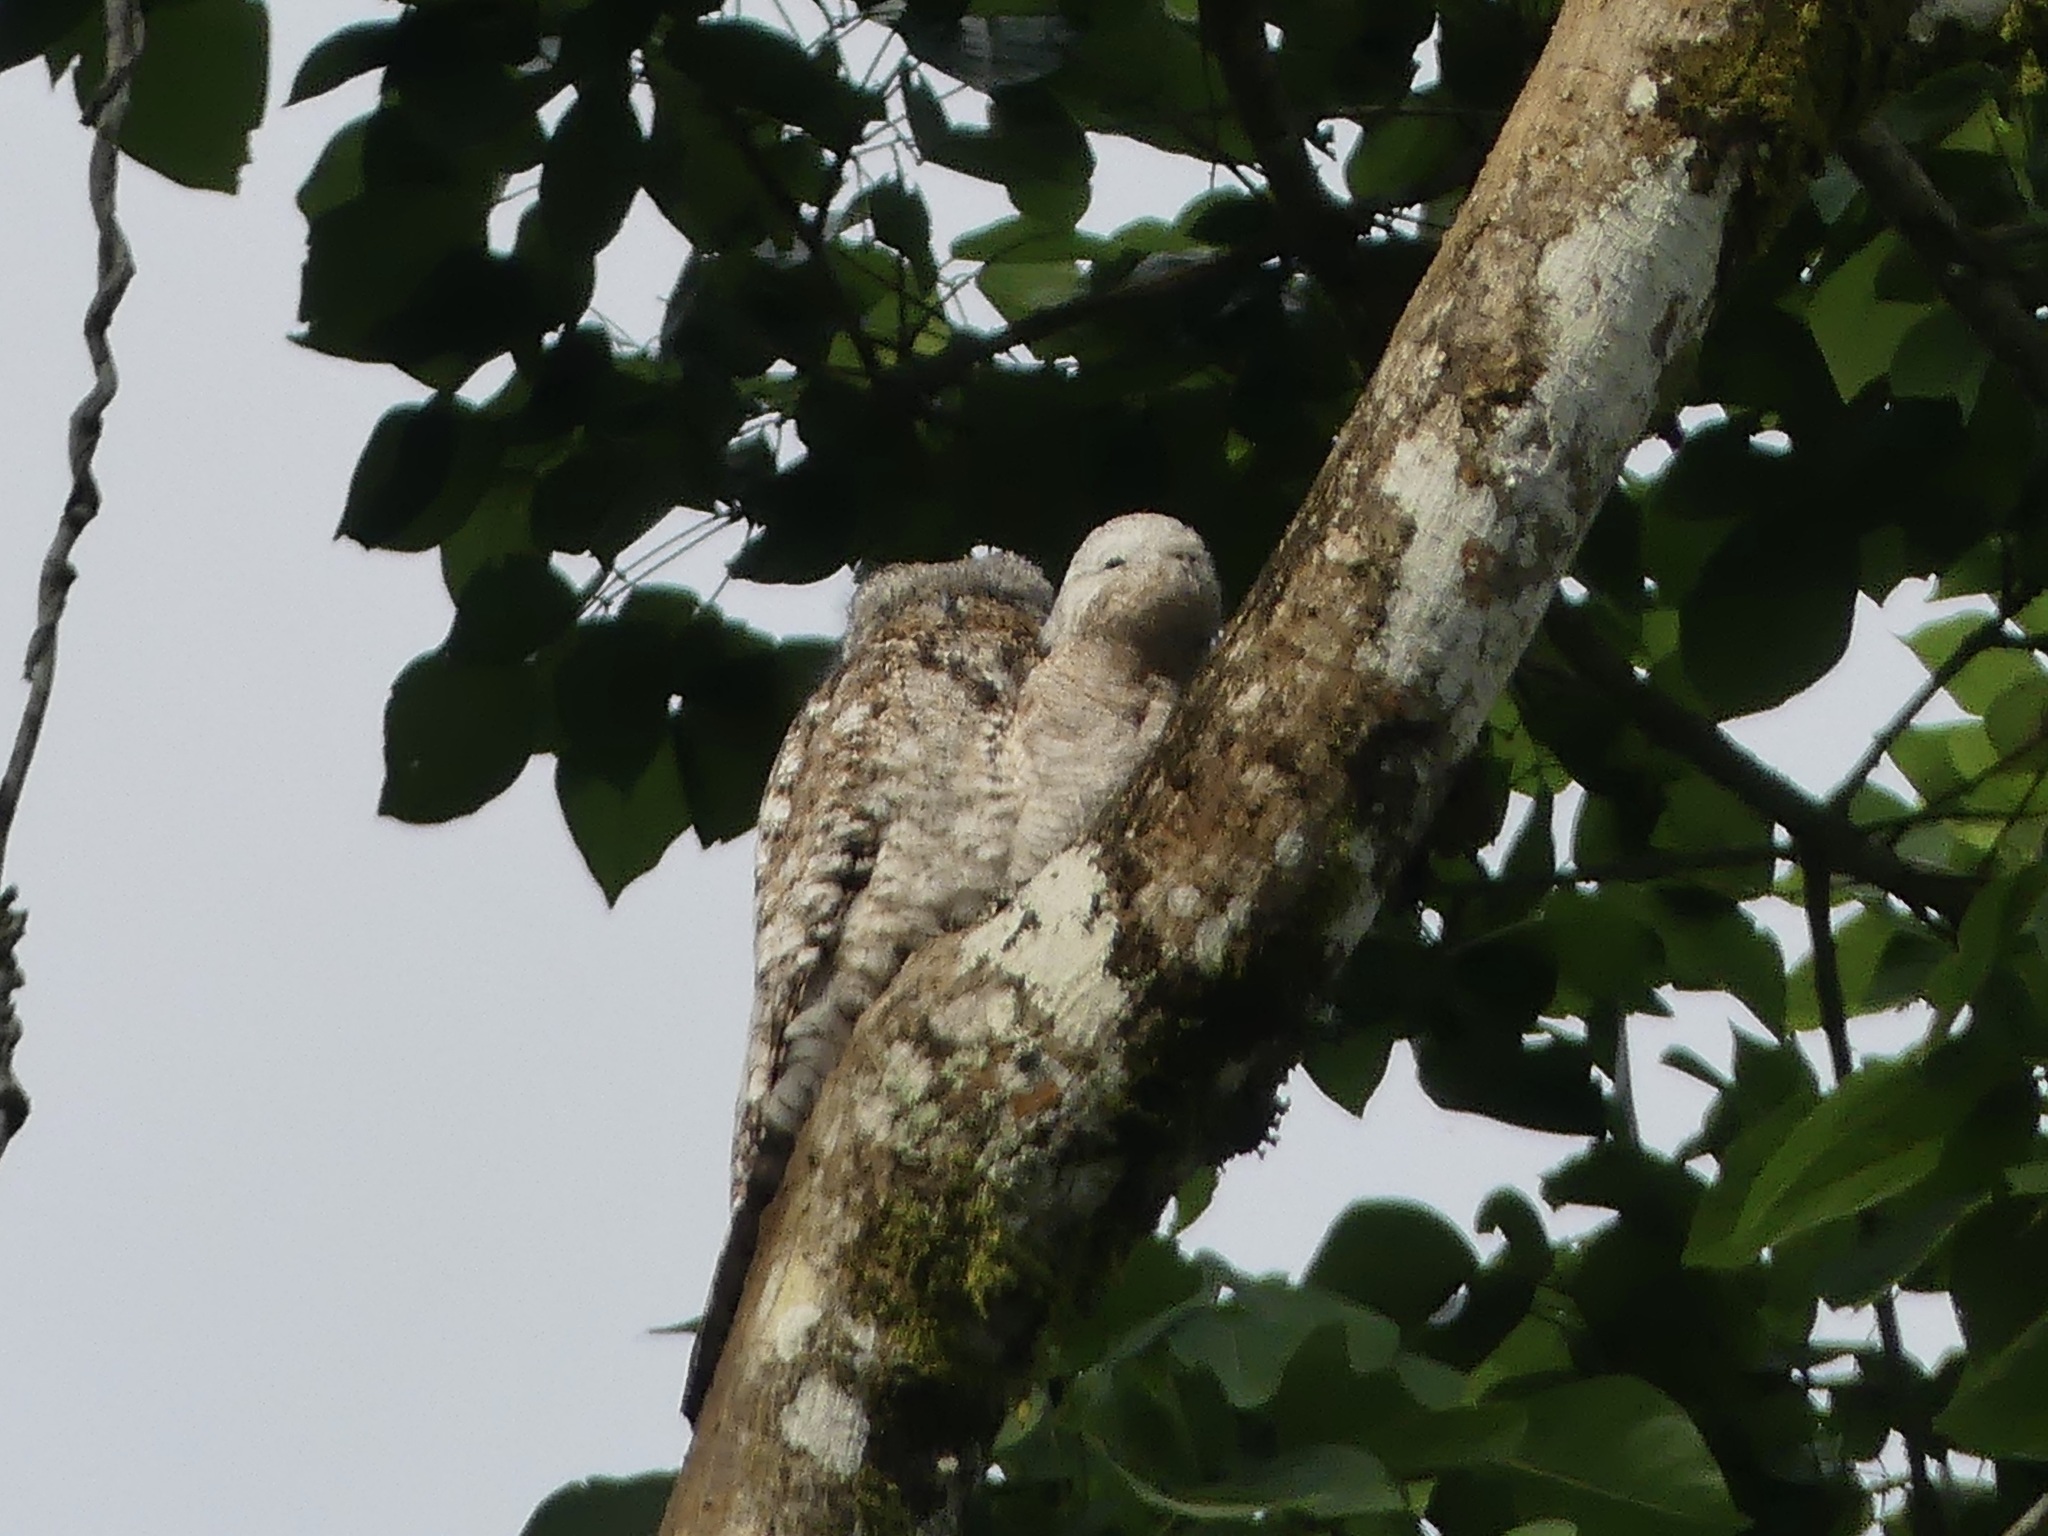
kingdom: Animalia
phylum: Chordata
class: Aves
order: Nyctibiiformes
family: Nyctibiidae
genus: Nyctibius
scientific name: Nyctibius grandis
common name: Great potoo
